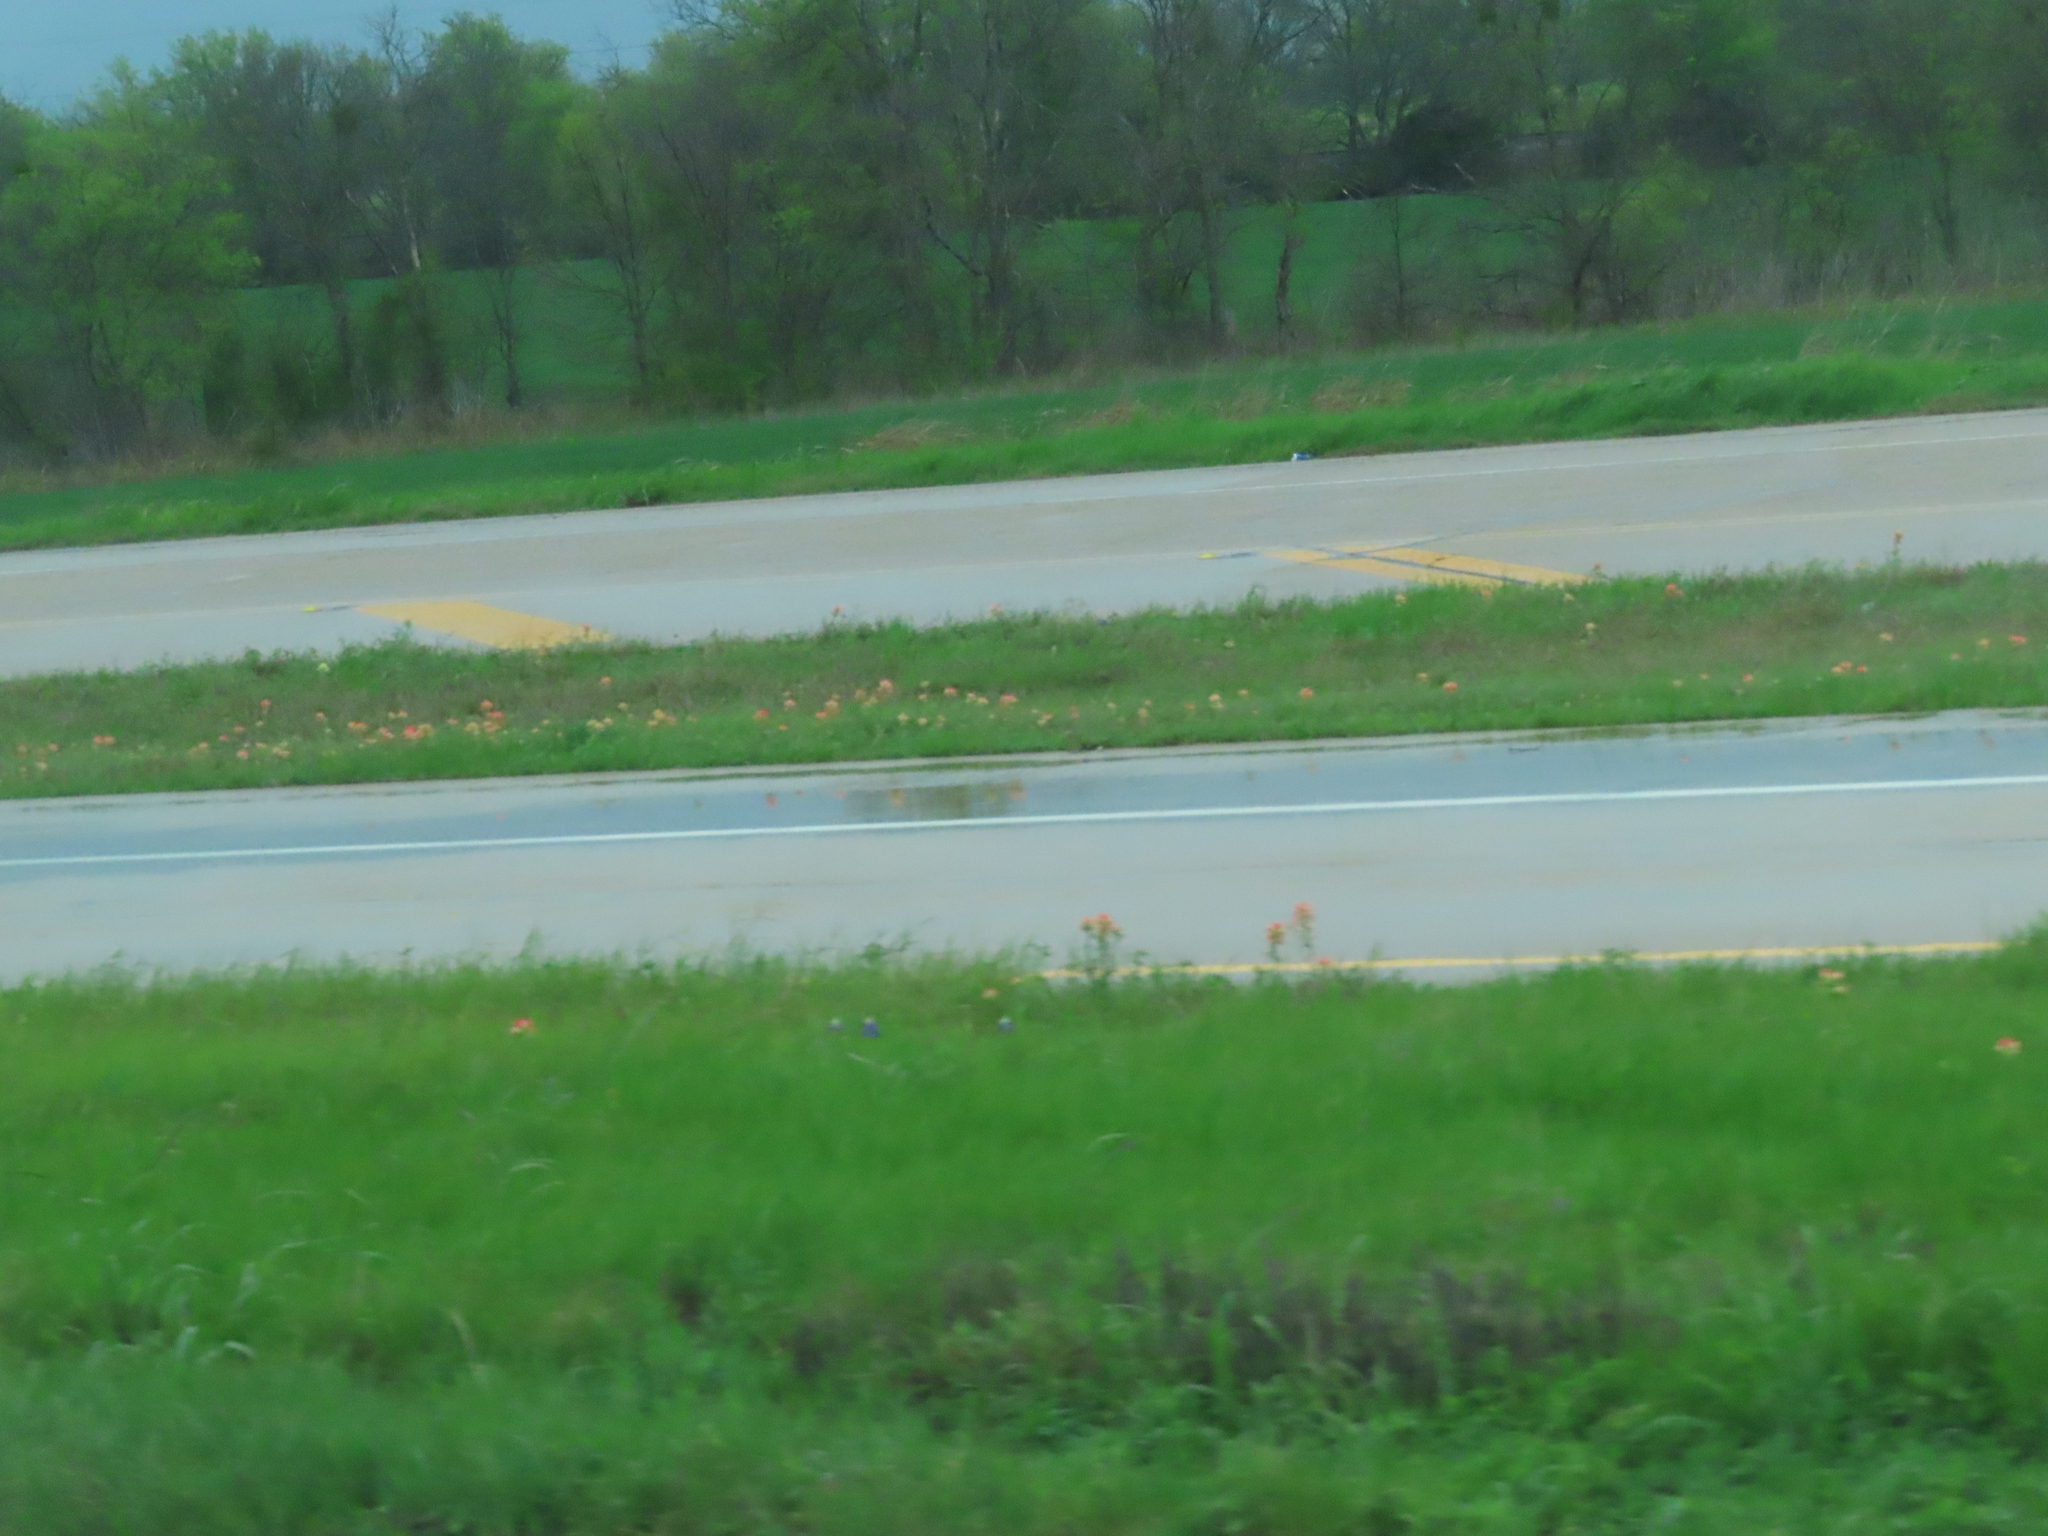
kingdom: Plantae
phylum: Tracheophyta
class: Magnoliopsida
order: Lamiales
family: Orobanchaceae
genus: Castilleja
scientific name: Castilleja indivisa
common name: Texas paintbrush
